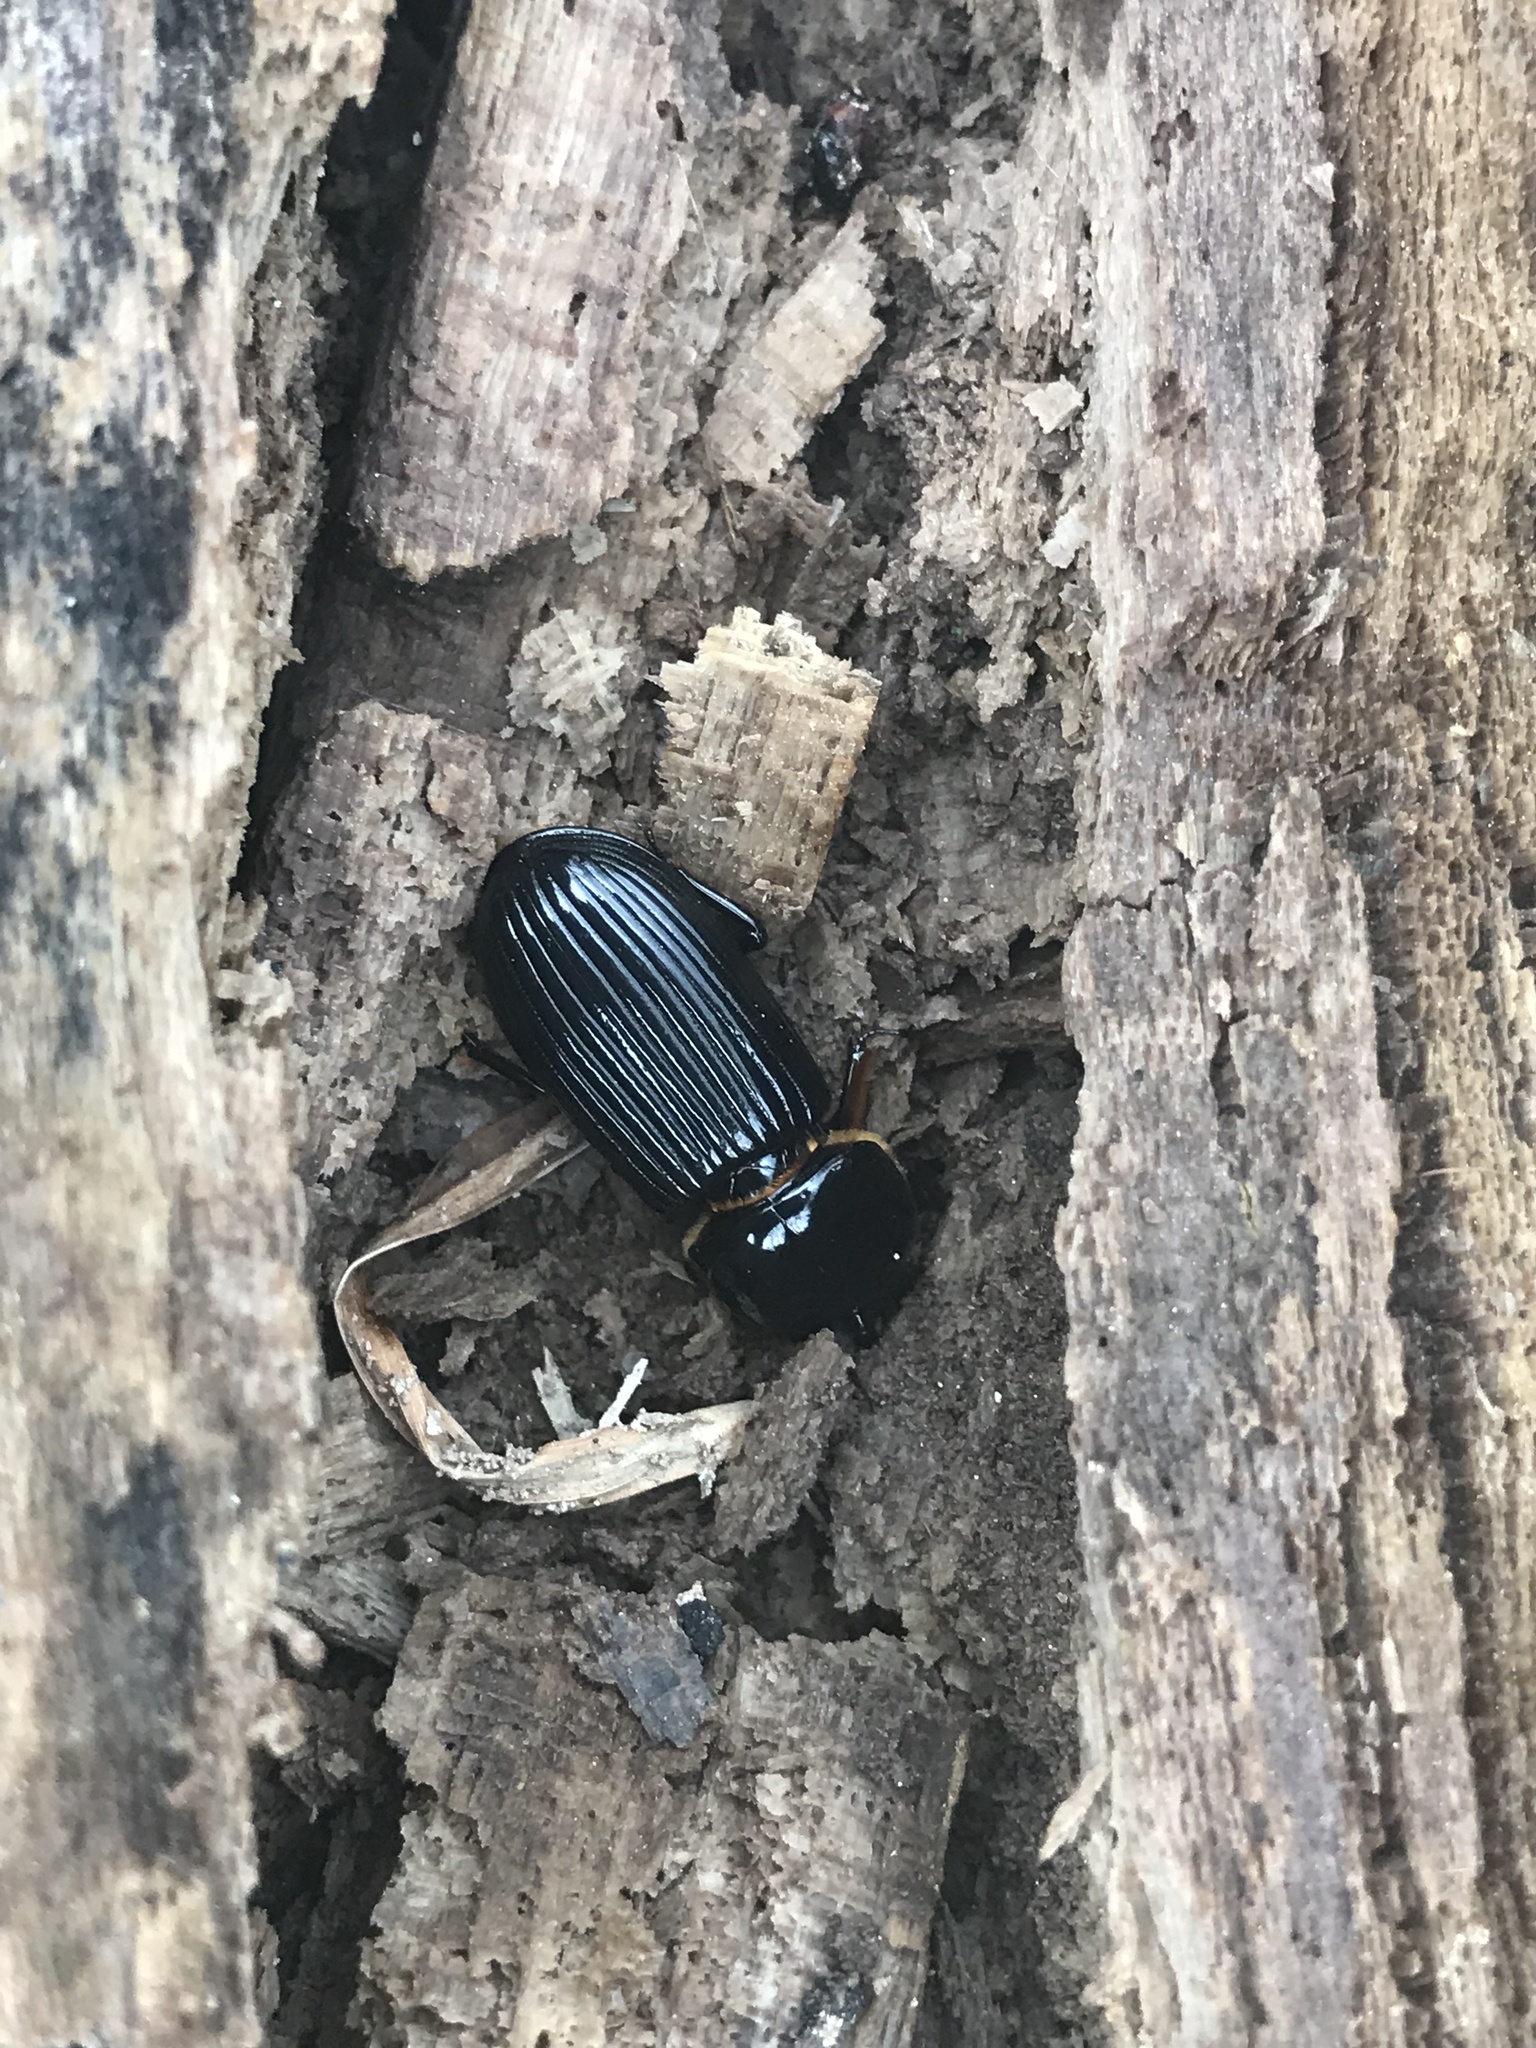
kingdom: Animalia
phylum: Arthropoda
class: Insecta
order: Coleoptera
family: Passalidae
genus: Odontotaenius
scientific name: Odontotaenius disjunctus
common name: Patent leather beetle
